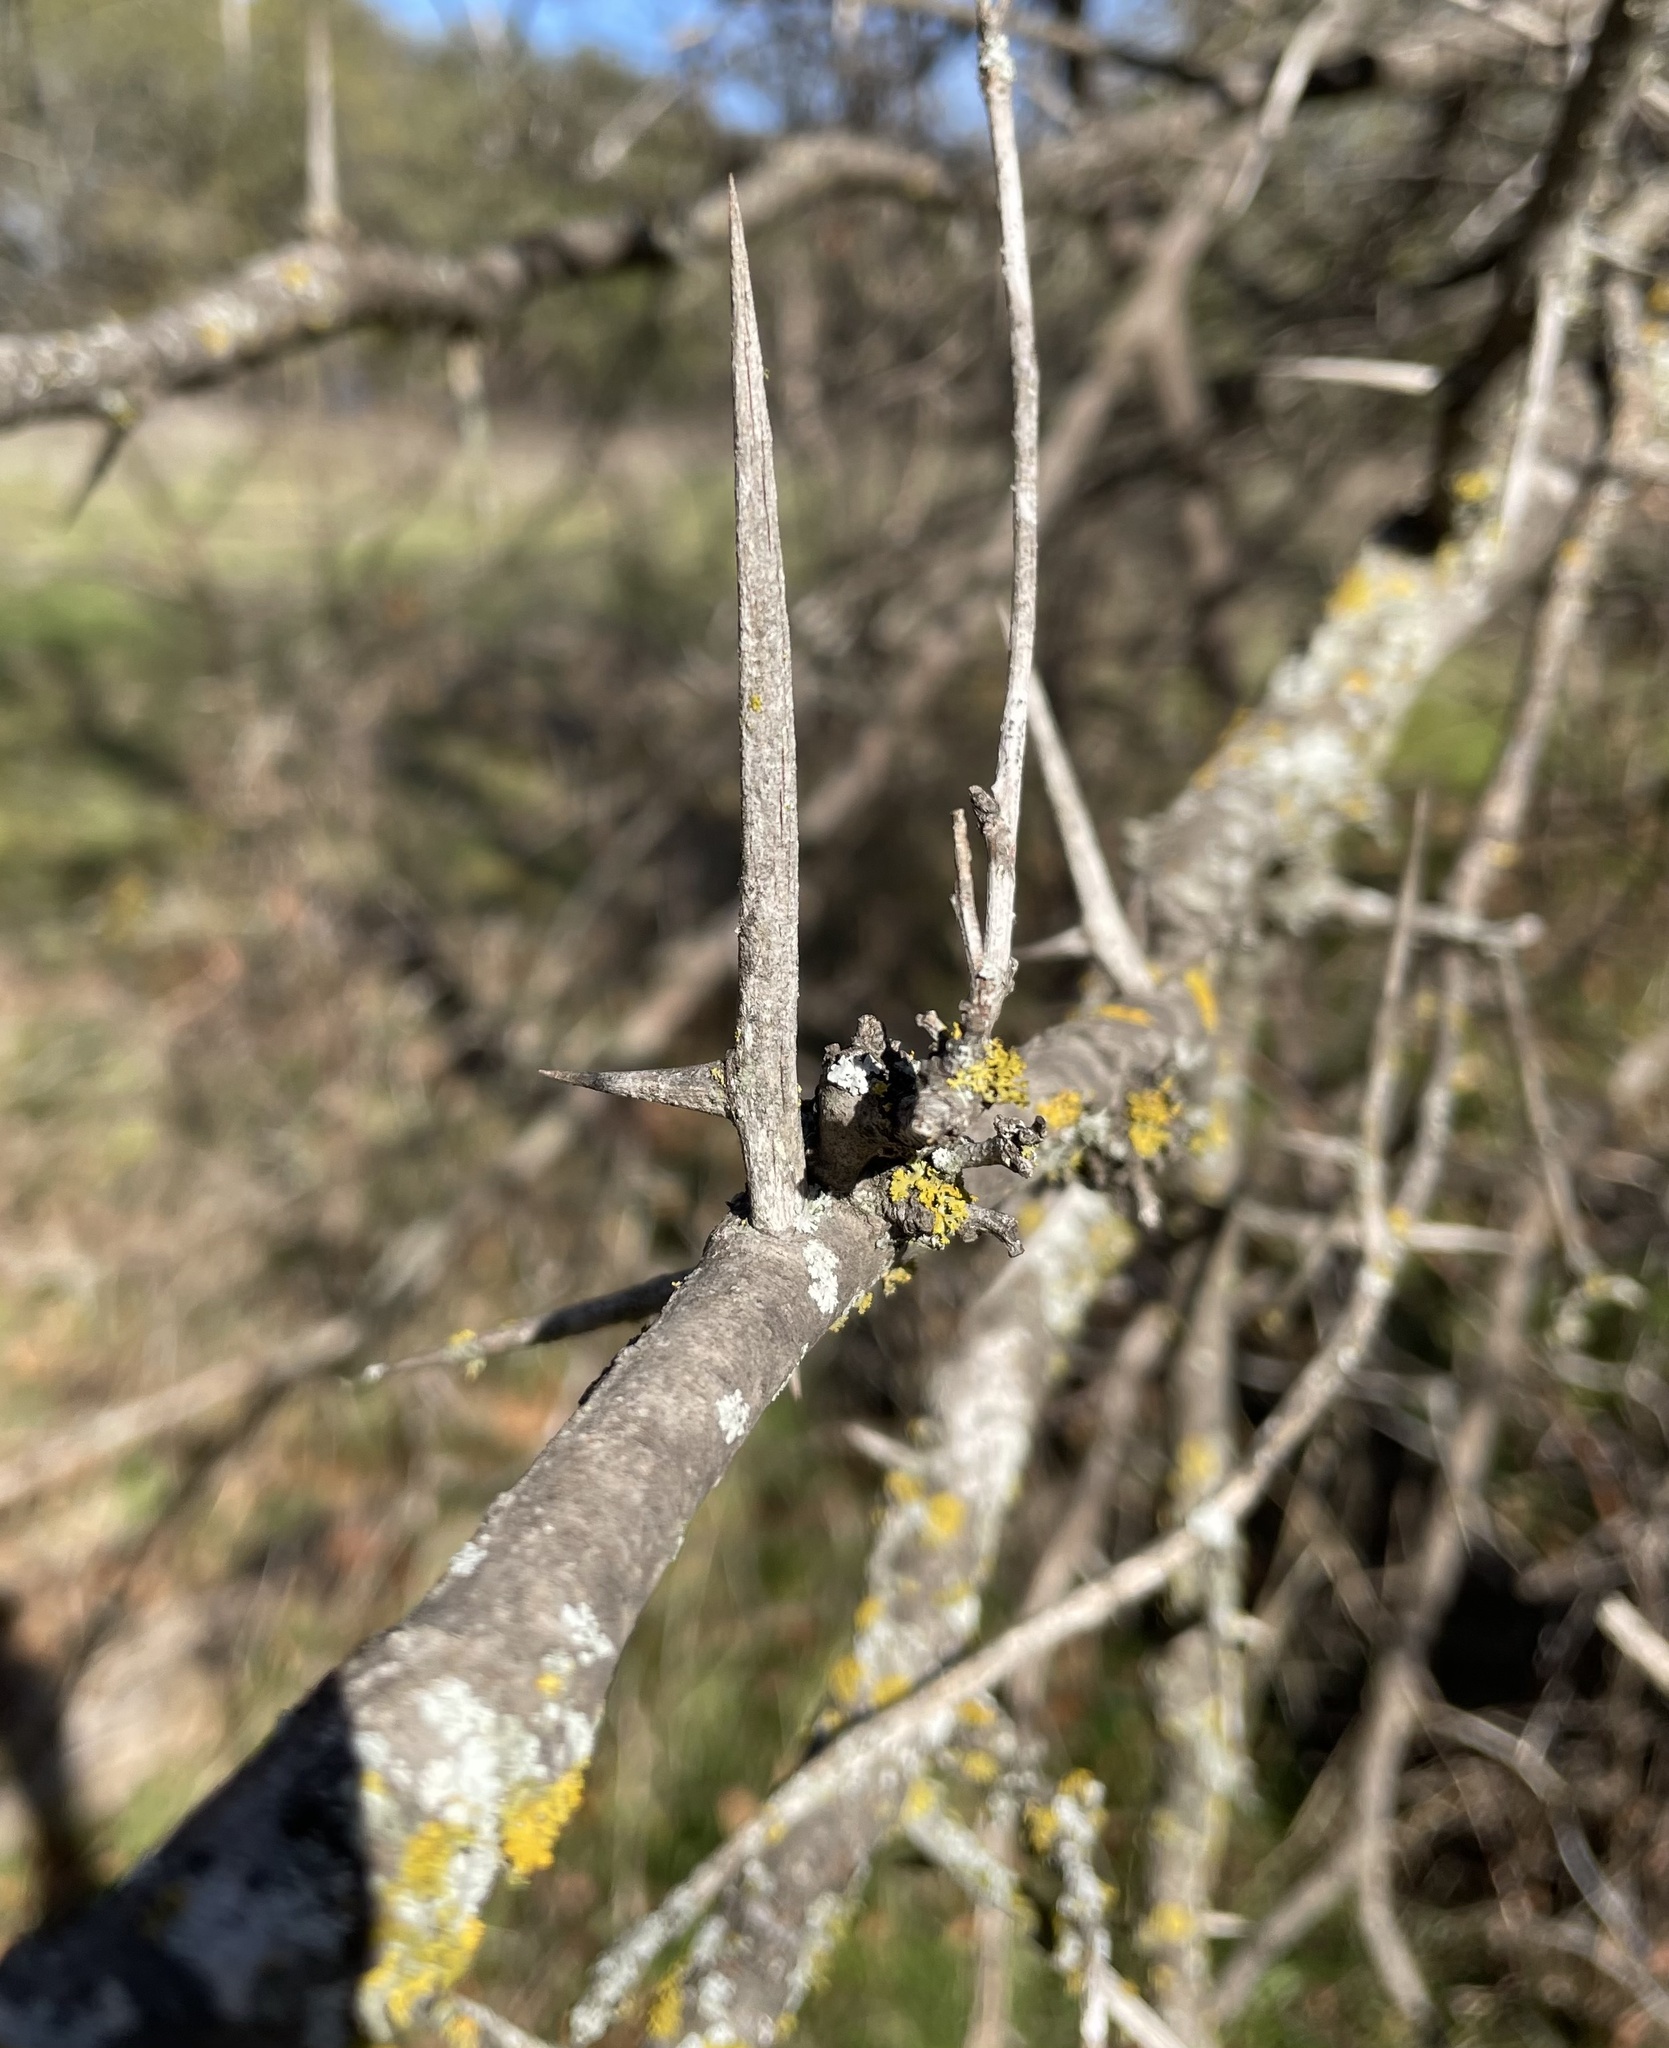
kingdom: Plantae
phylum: Tracheophyta
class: Magnoliopsida
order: Fabales
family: Fabaceae
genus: Gleditsia
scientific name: Gleditsia triacanthos
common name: Common honeylocust
